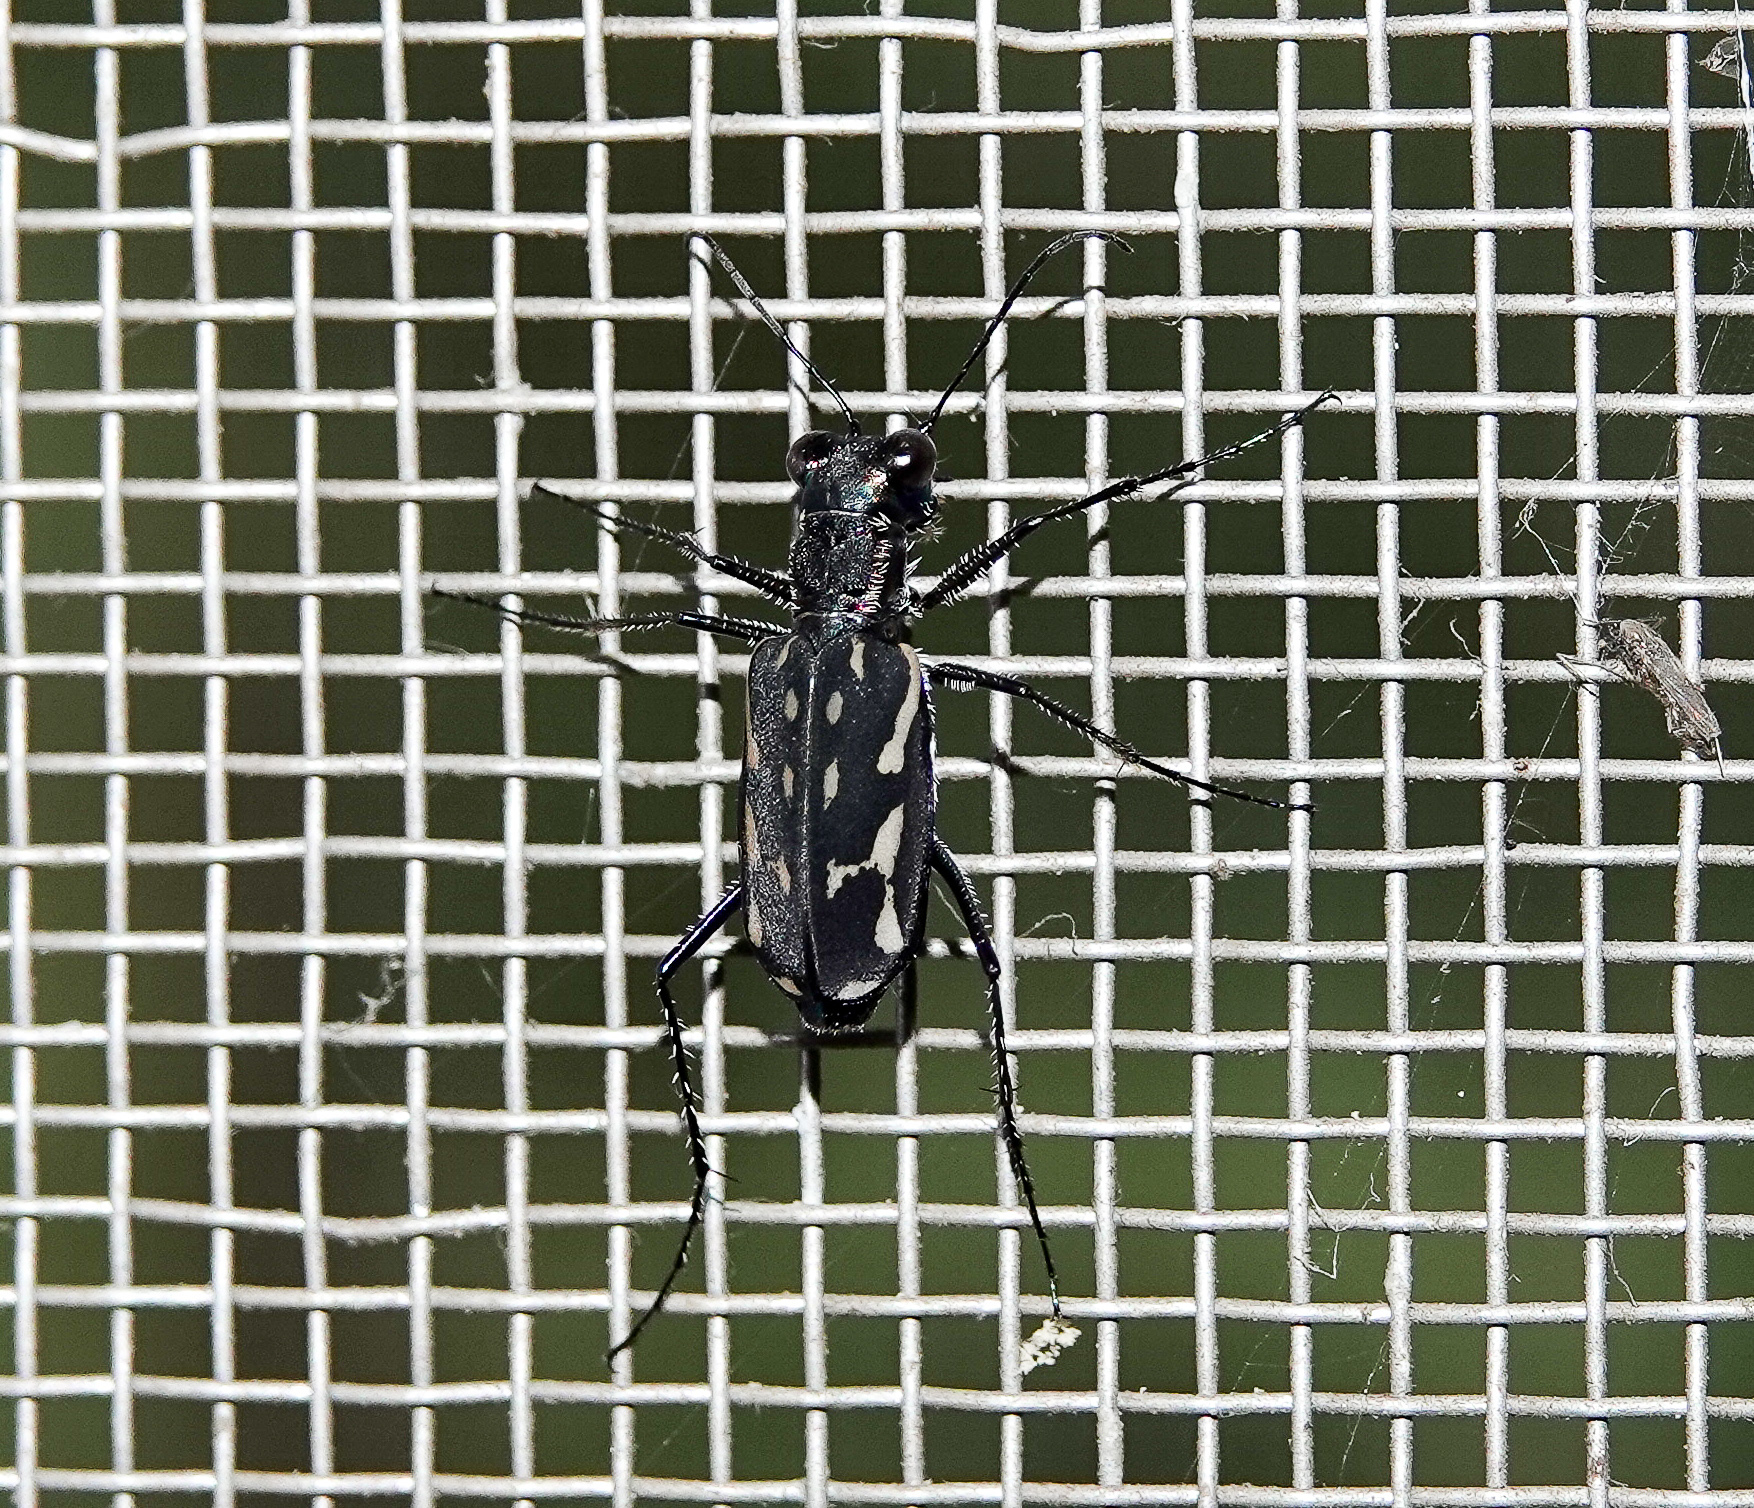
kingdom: Animalia
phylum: Arthropoda
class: Insecta
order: Coleoptera
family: Carabidae
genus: Lophyra
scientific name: Lophyra striolata
